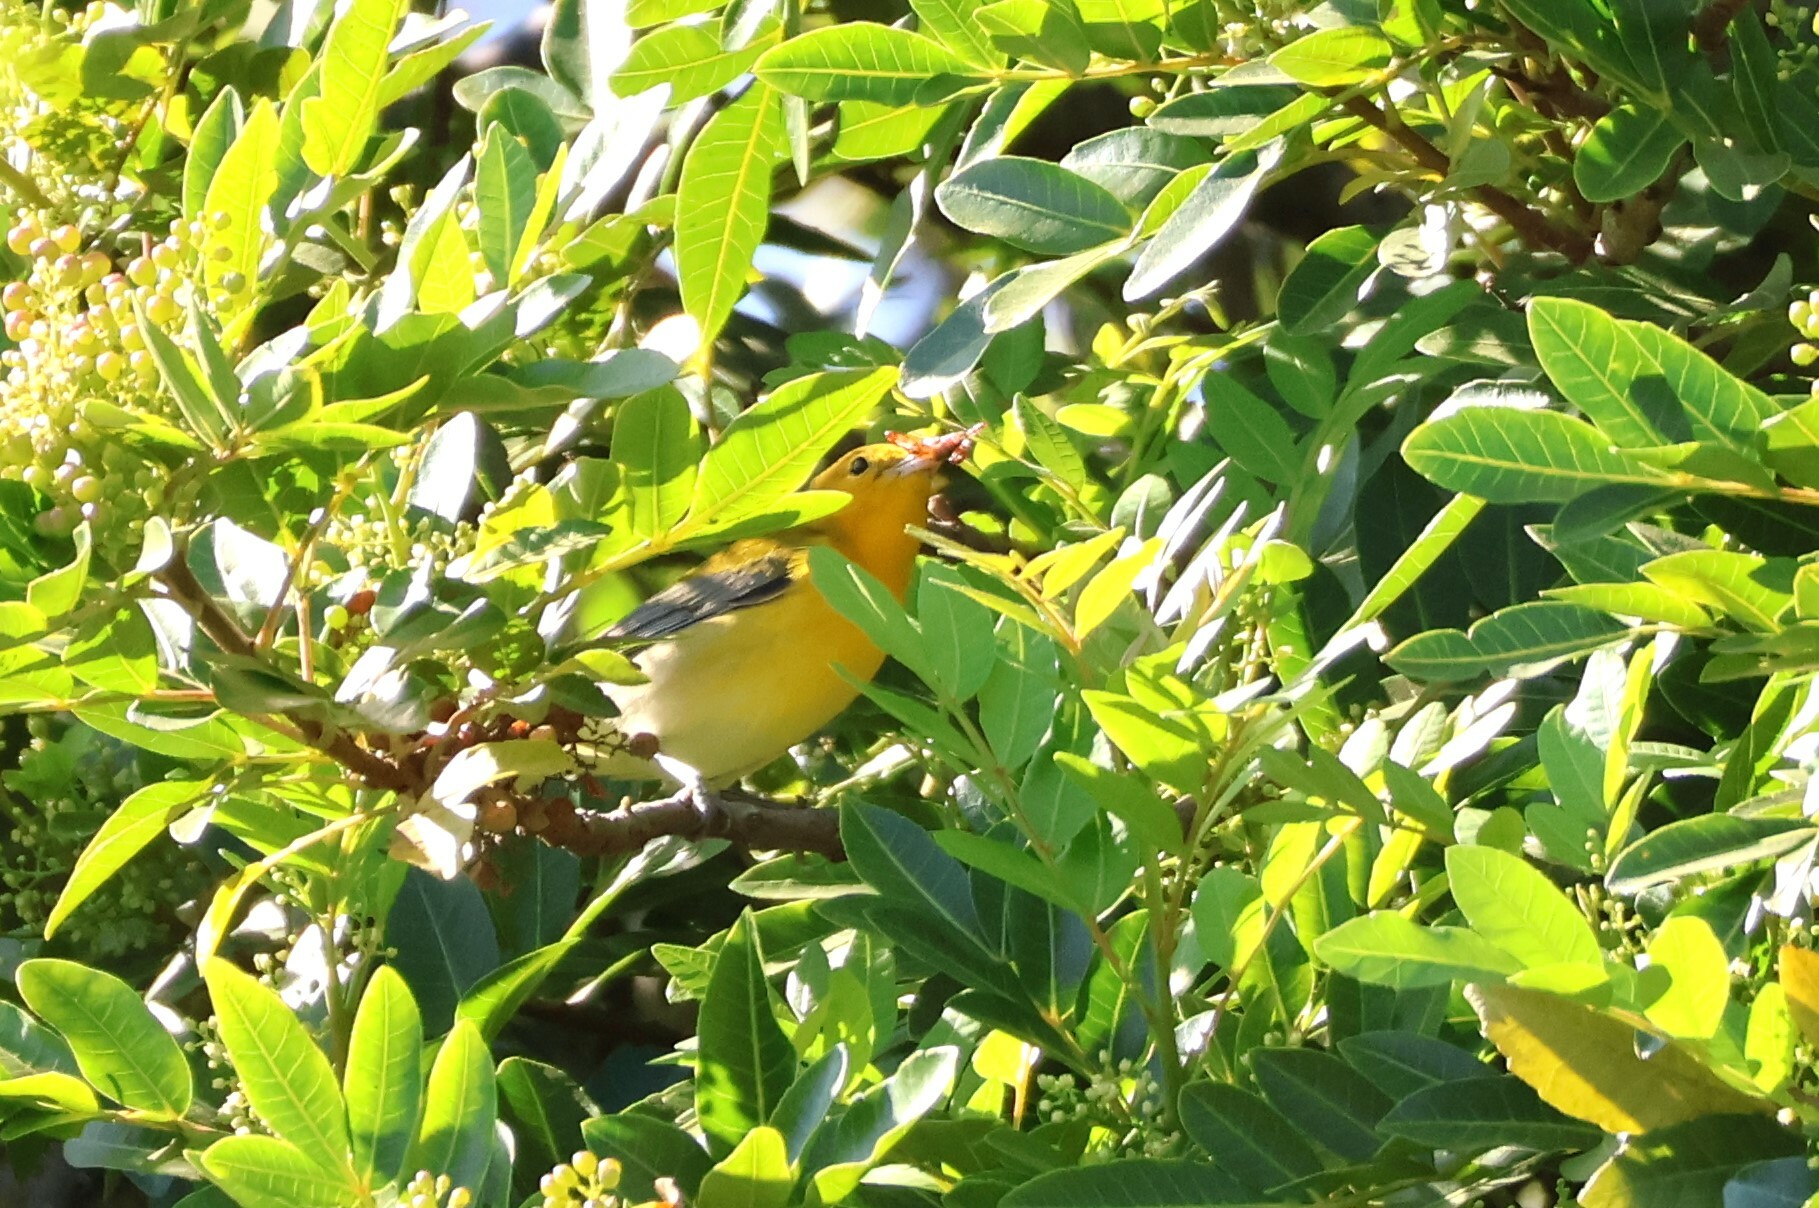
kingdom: Animalia
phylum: Chordata
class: Aves
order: Passeriformes
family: Parulidae
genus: Protonotaria
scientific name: Protonotaria citrea
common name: Prothonotary warbler
